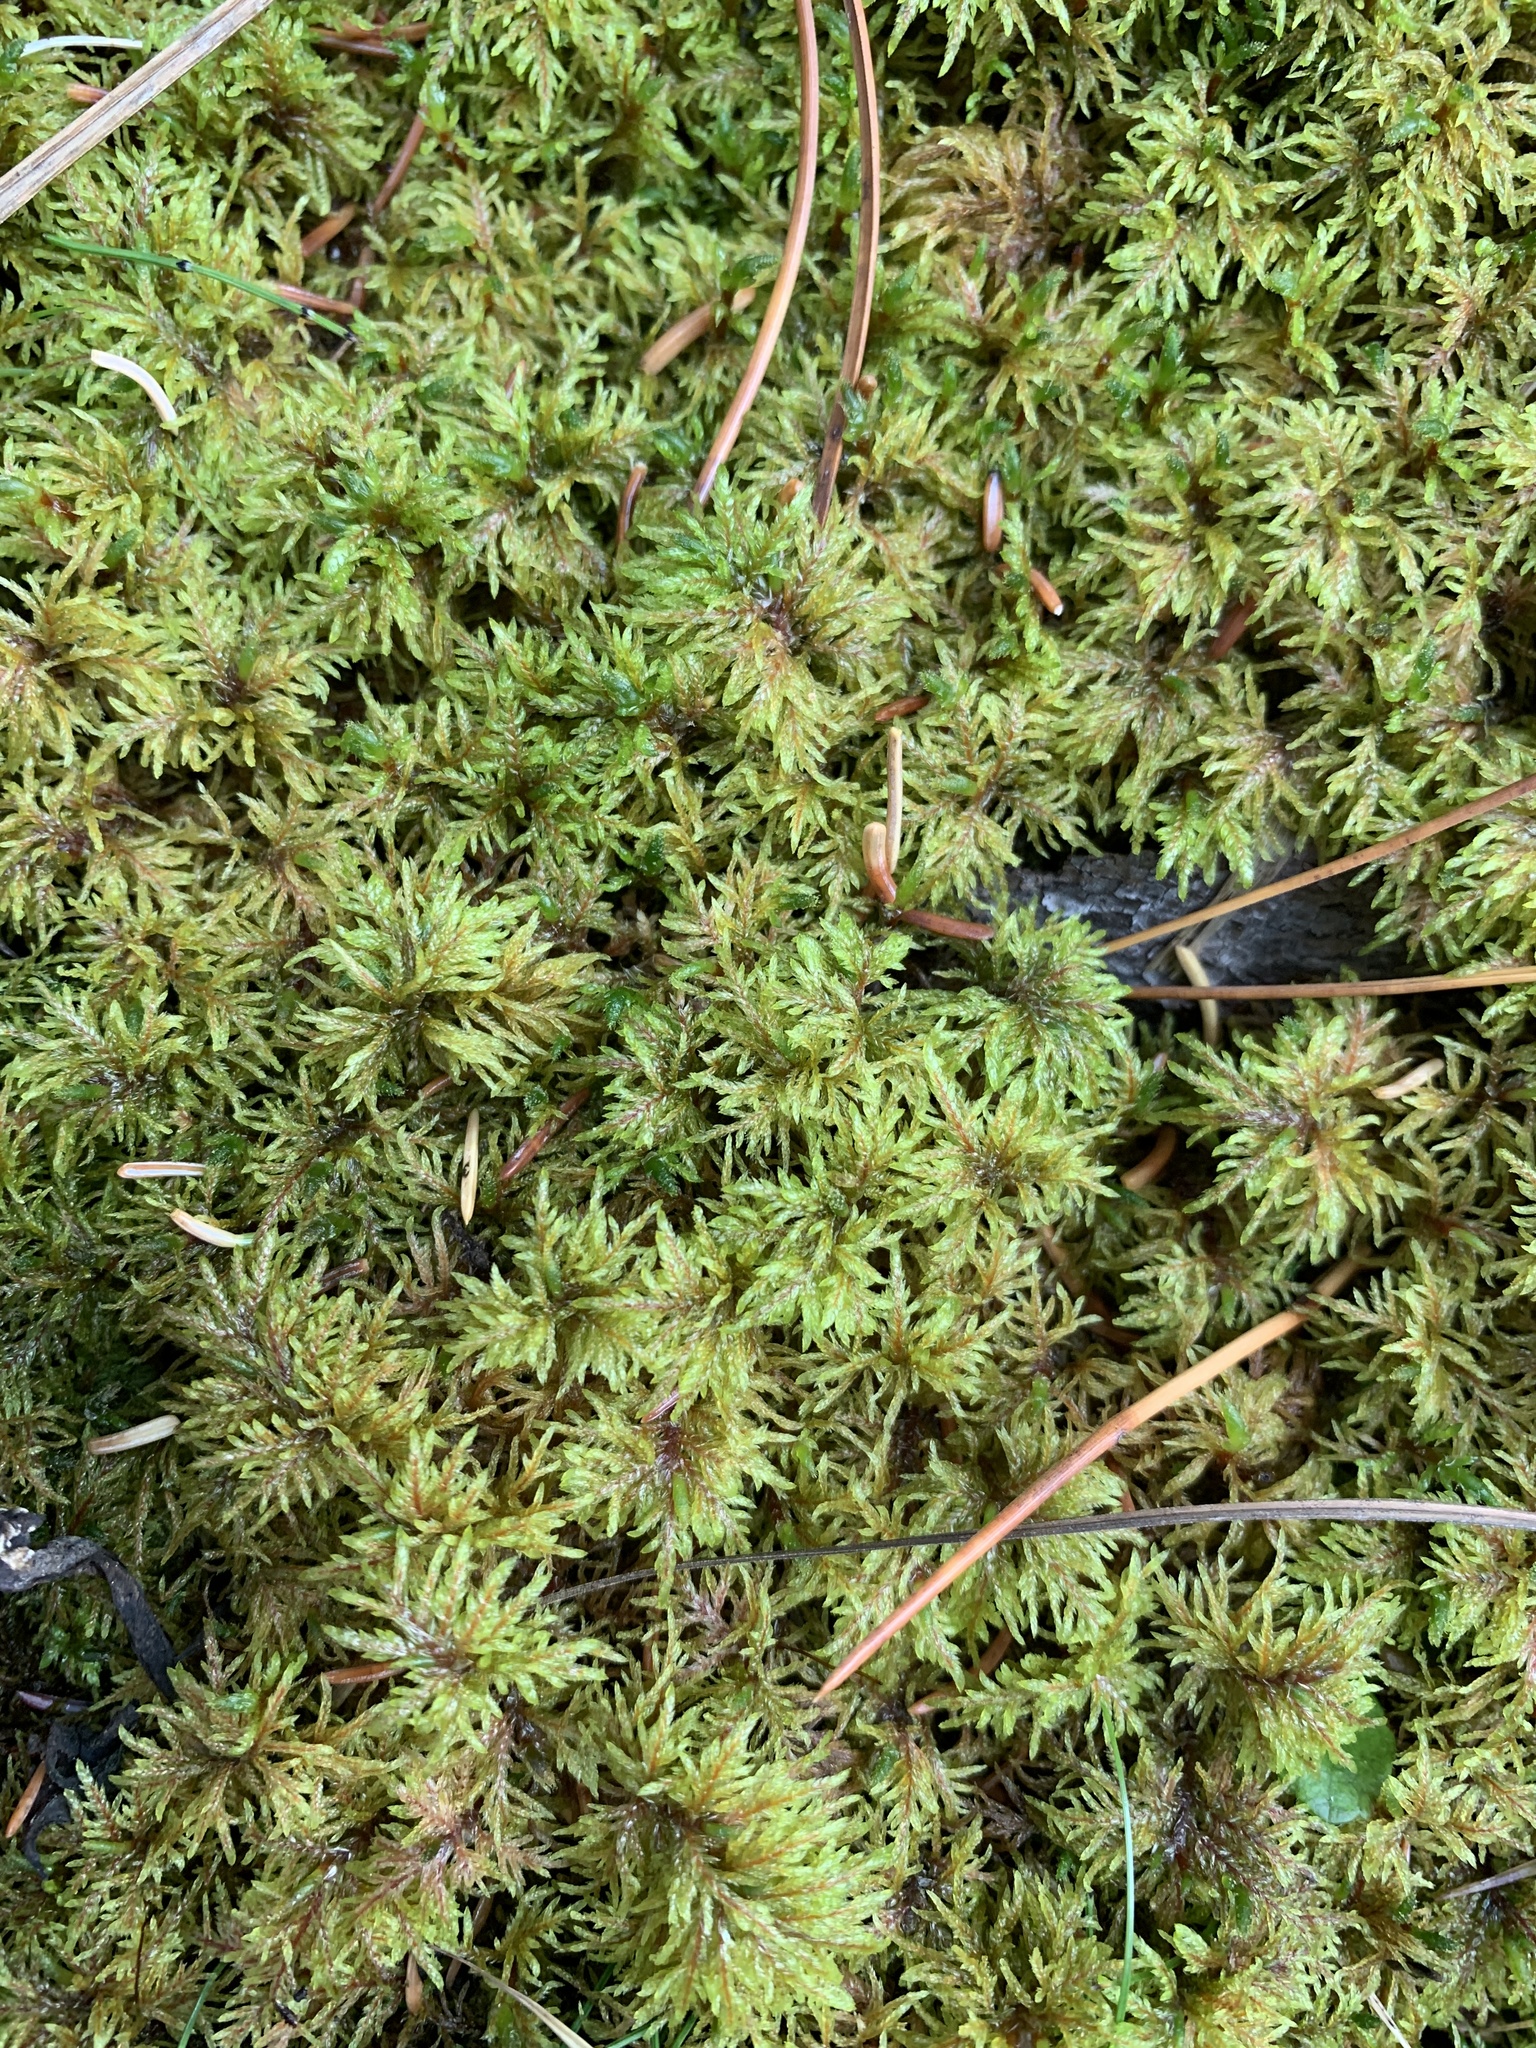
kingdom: Plantae
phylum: Bryophyta
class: Bryopsida
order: Hypnales
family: Hylocomiaceae
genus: Hylocomium
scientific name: Hylocomium splendens
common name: Stairstep moss
